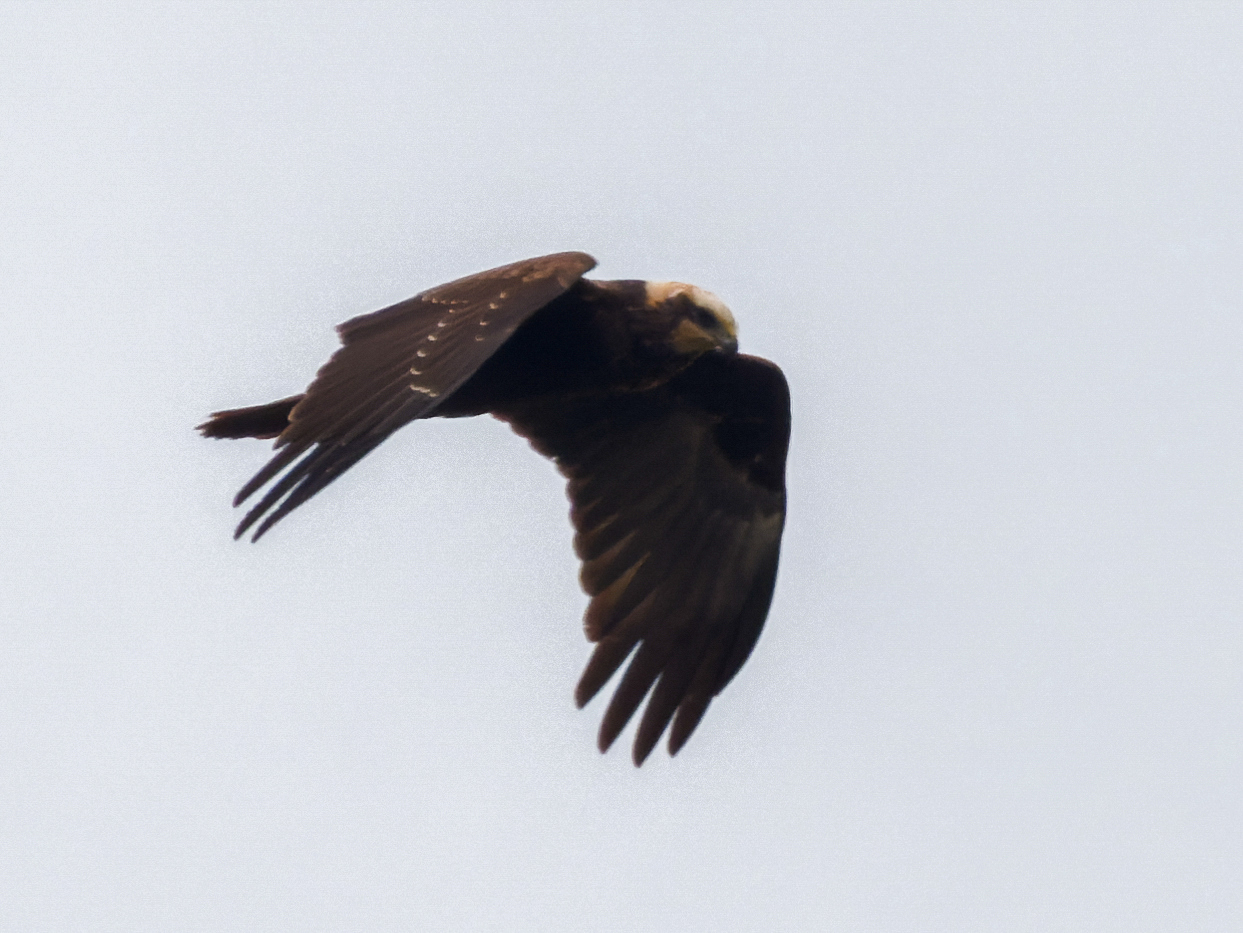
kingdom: Animalia
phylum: Chordata
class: Aves
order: Accipitriformes
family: Accipitridae
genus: Circus
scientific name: Circus aeruginosus
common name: Western marsh harrier
